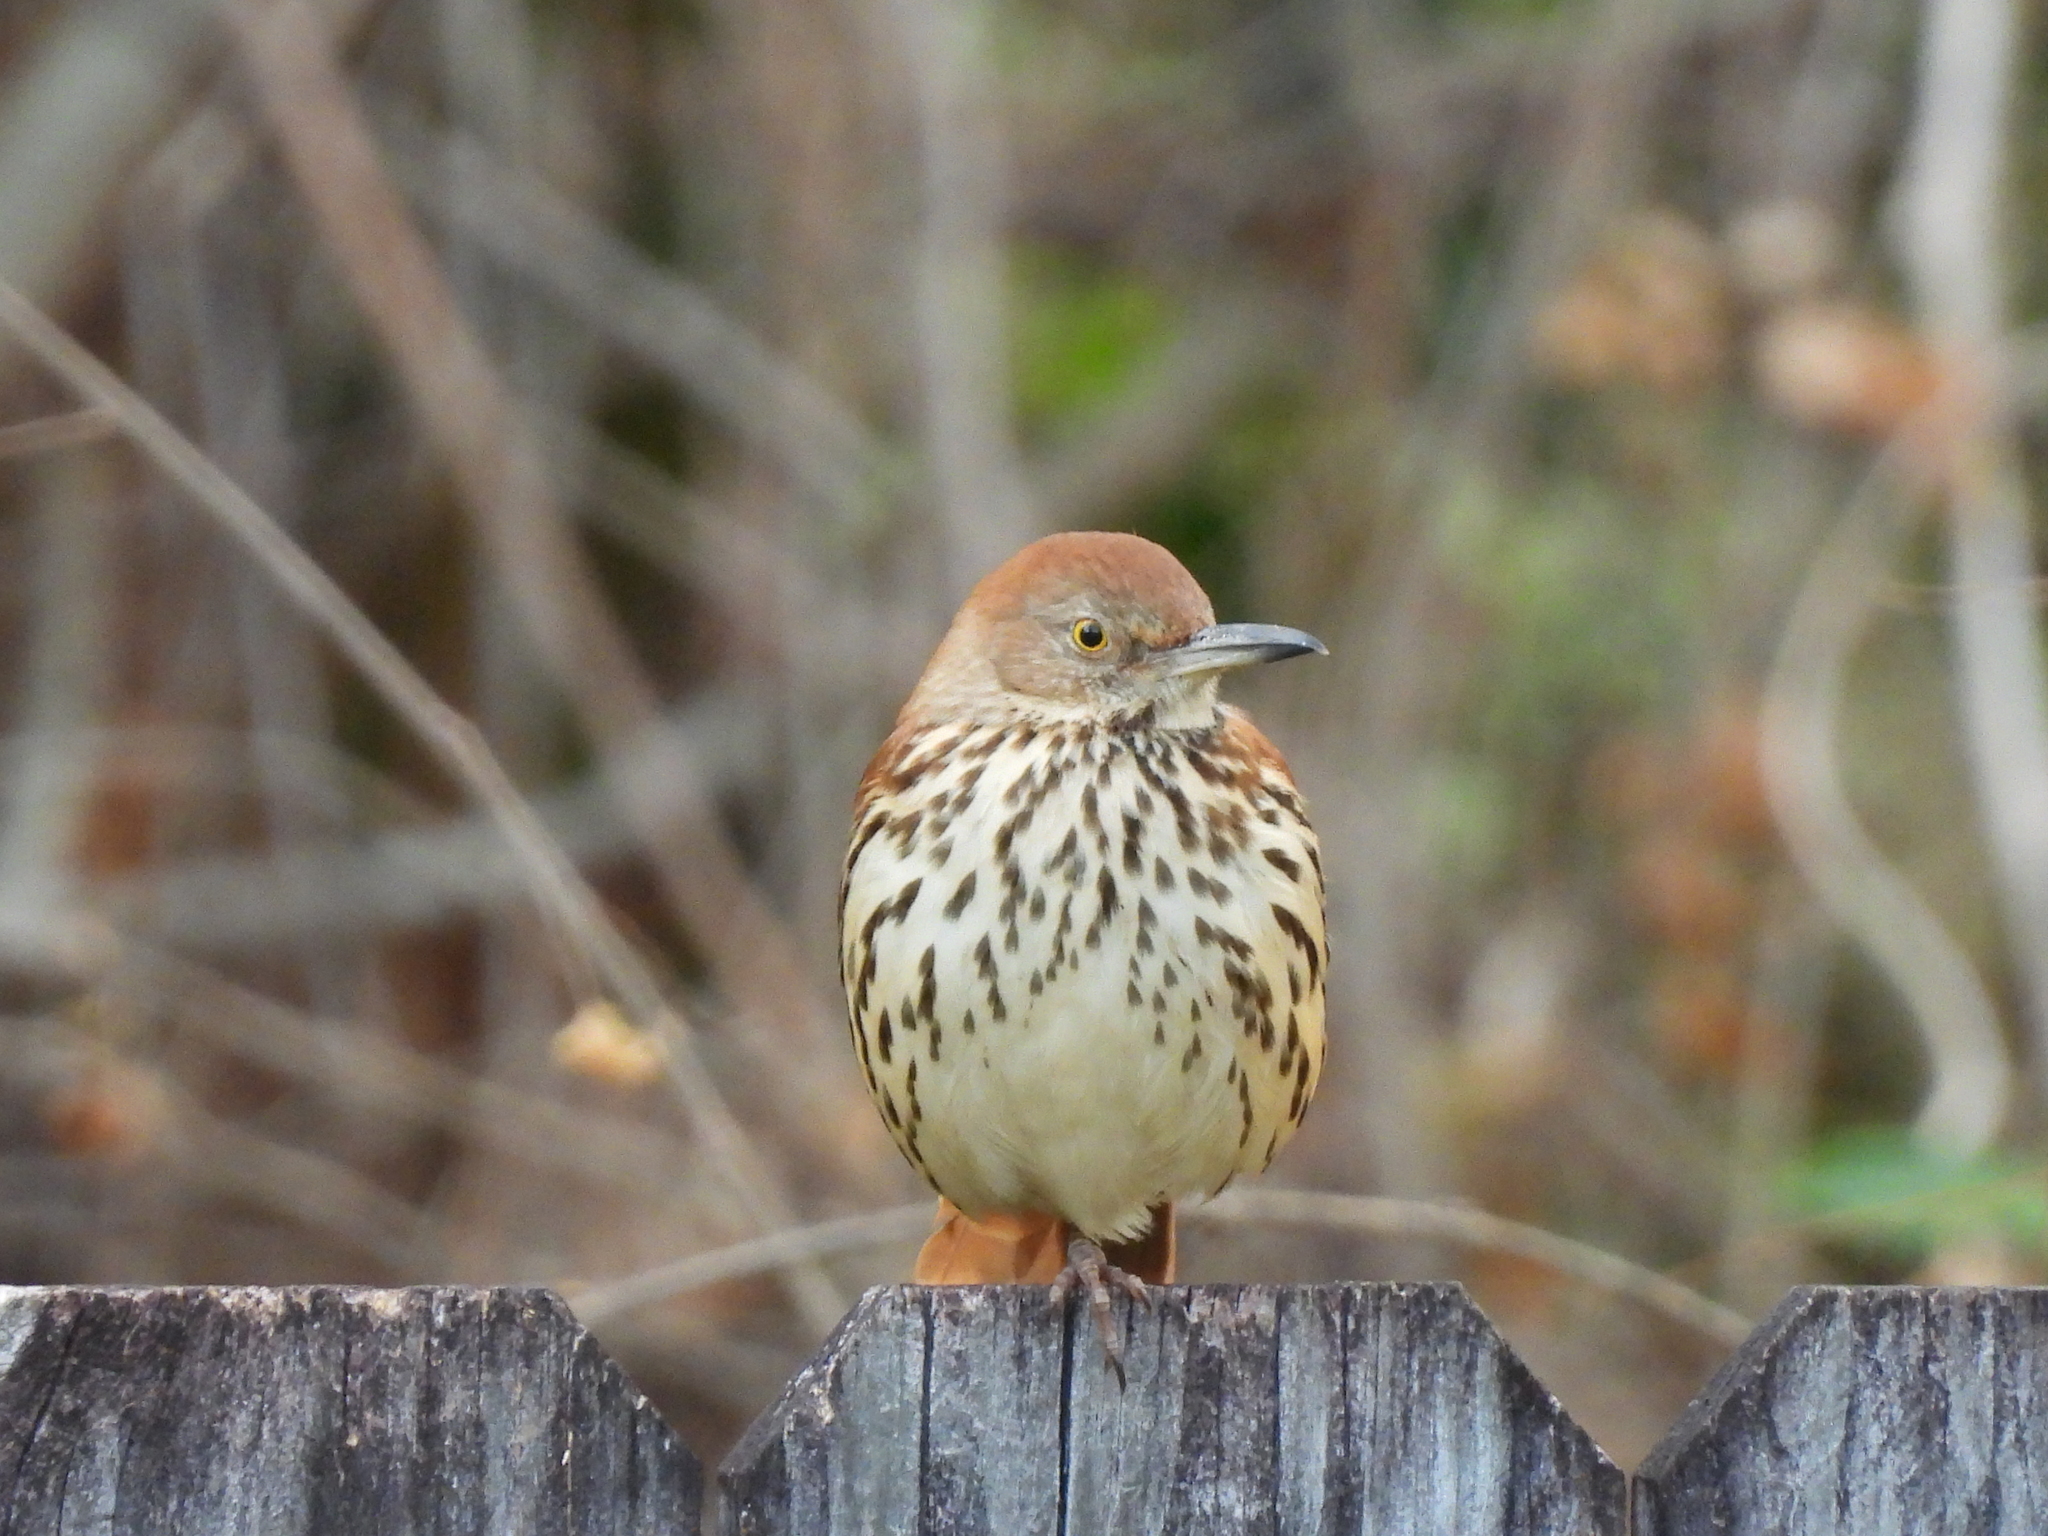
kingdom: Animalia
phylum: Chordata
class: Aves
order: Passeriformes
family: Mimidae
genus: Toxostoma
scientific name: Toxostoma rufum
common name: Brown thrasher
